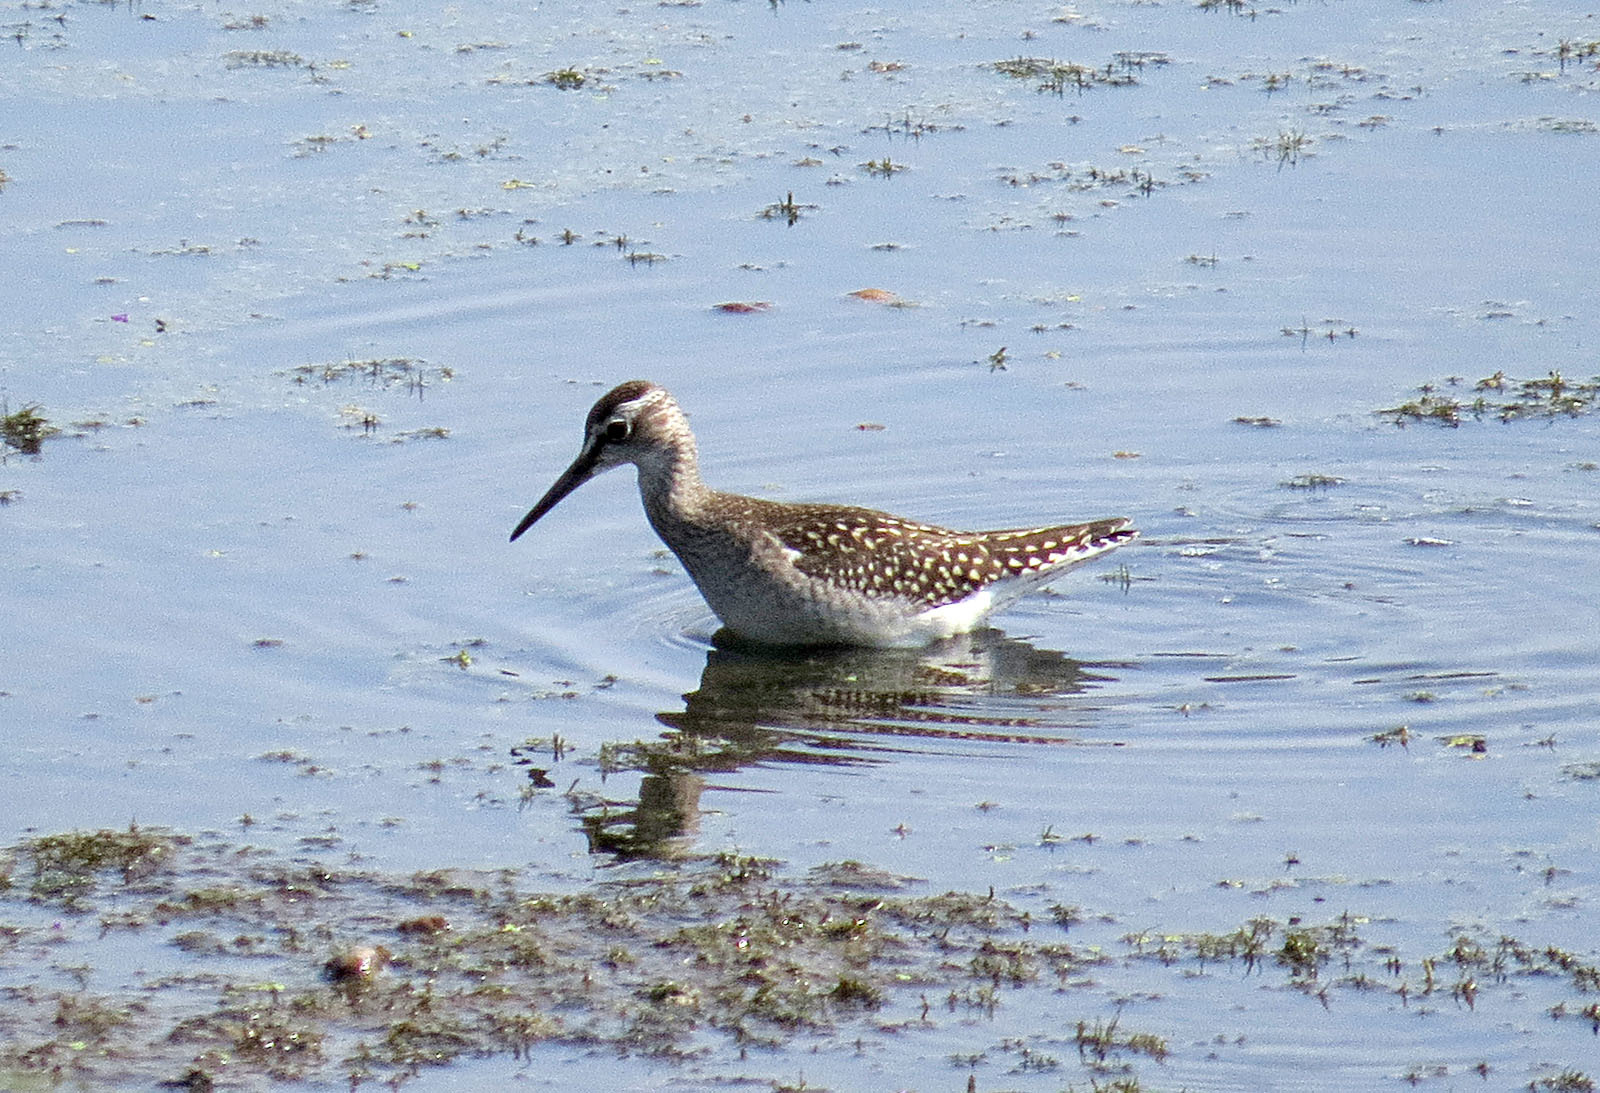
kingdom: Animalia
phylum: Chordata
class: Aves
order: Charadriiformes
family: Scolopacidae
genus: Tringa
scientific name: Tringa glareola
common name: Wood sandpiper
